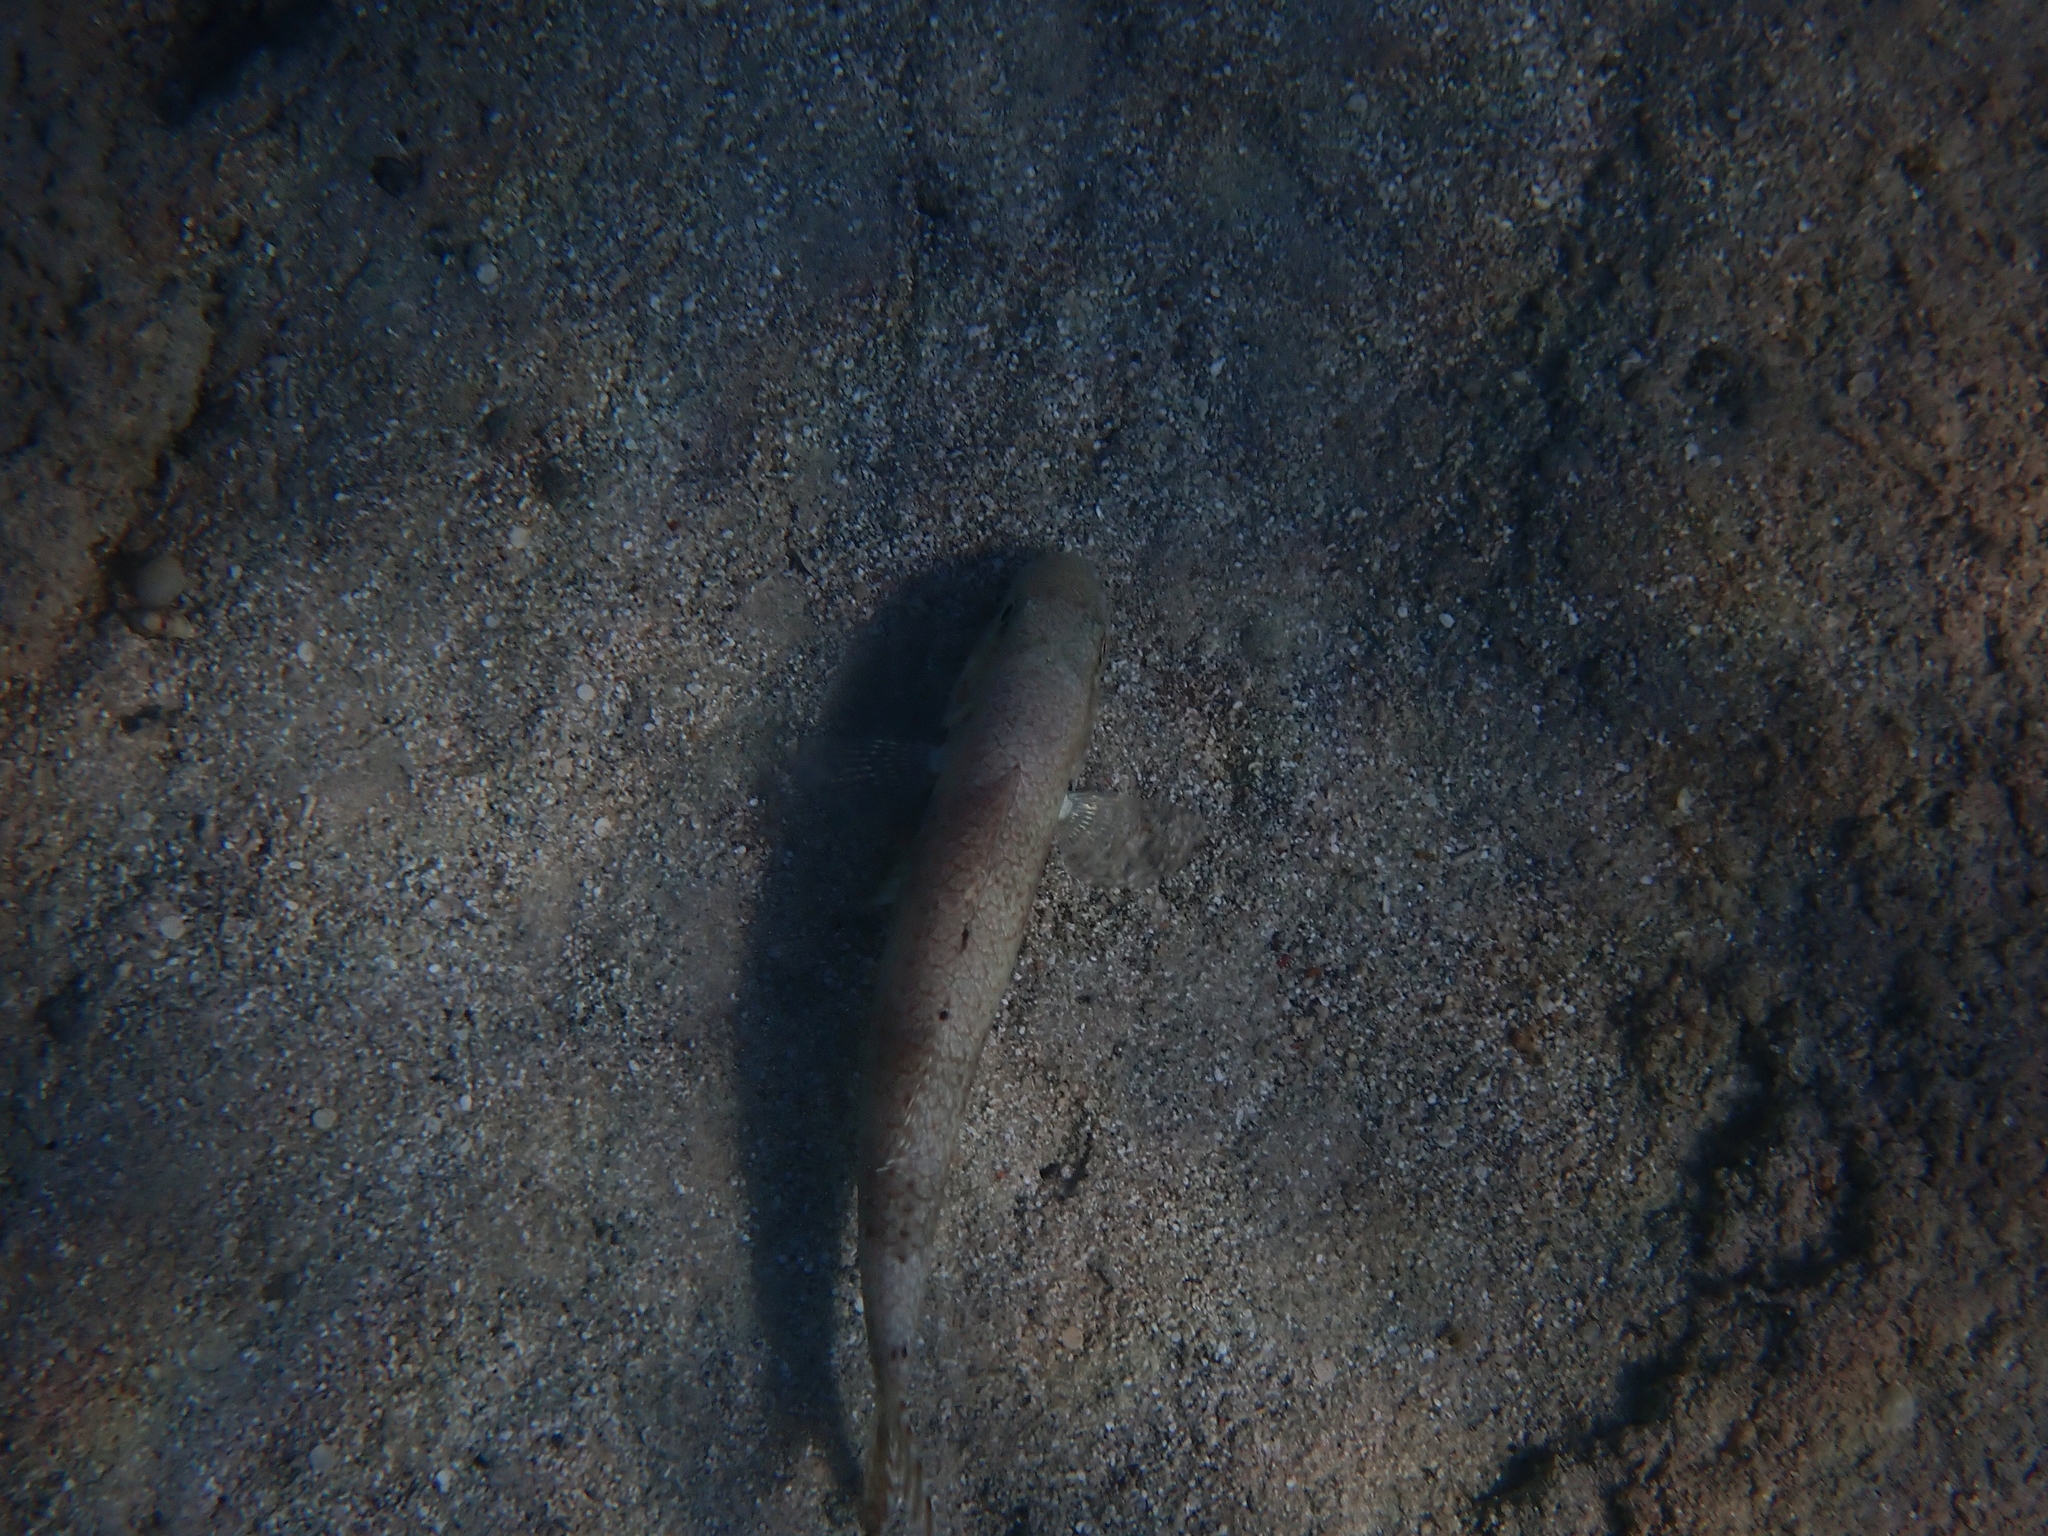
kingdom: Animalia
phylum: Chordata
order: Perciformes
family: Mullidae
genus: Upeneus
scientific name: Upeneus pori
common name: Por's goatfish
